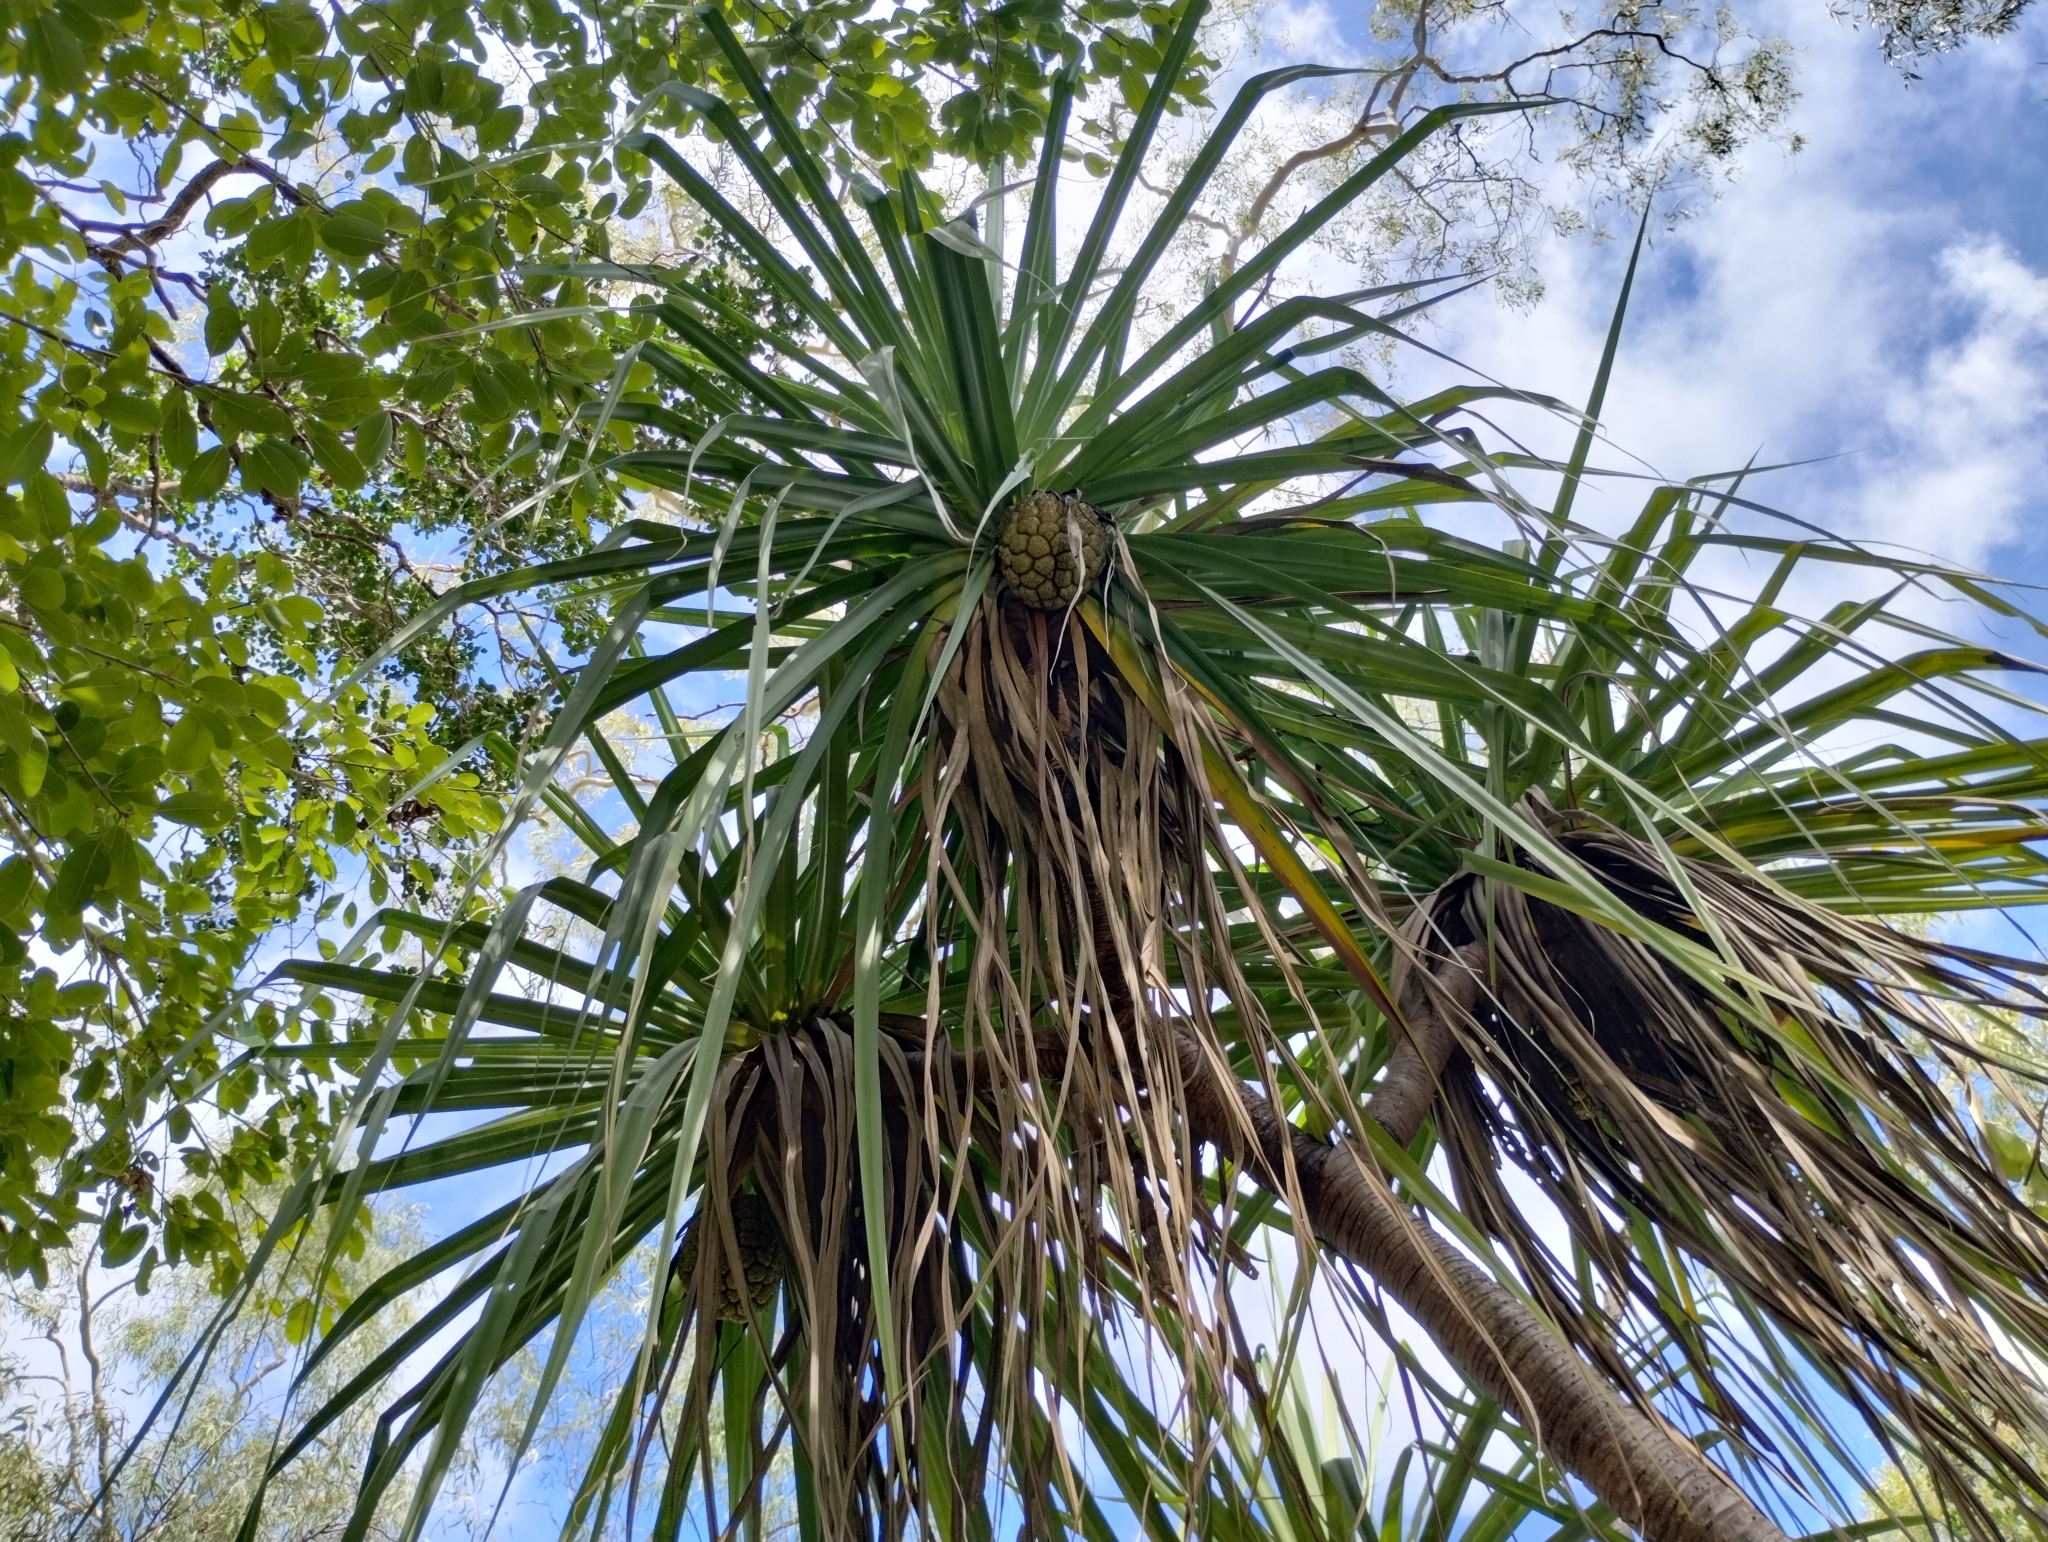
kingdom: Plantae
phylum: Tracheophyta
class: Liliopsida
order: Pandanales
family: Pandanaceae
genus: Pandanus
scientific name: Pandanus spiralis
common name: Screw-pine
